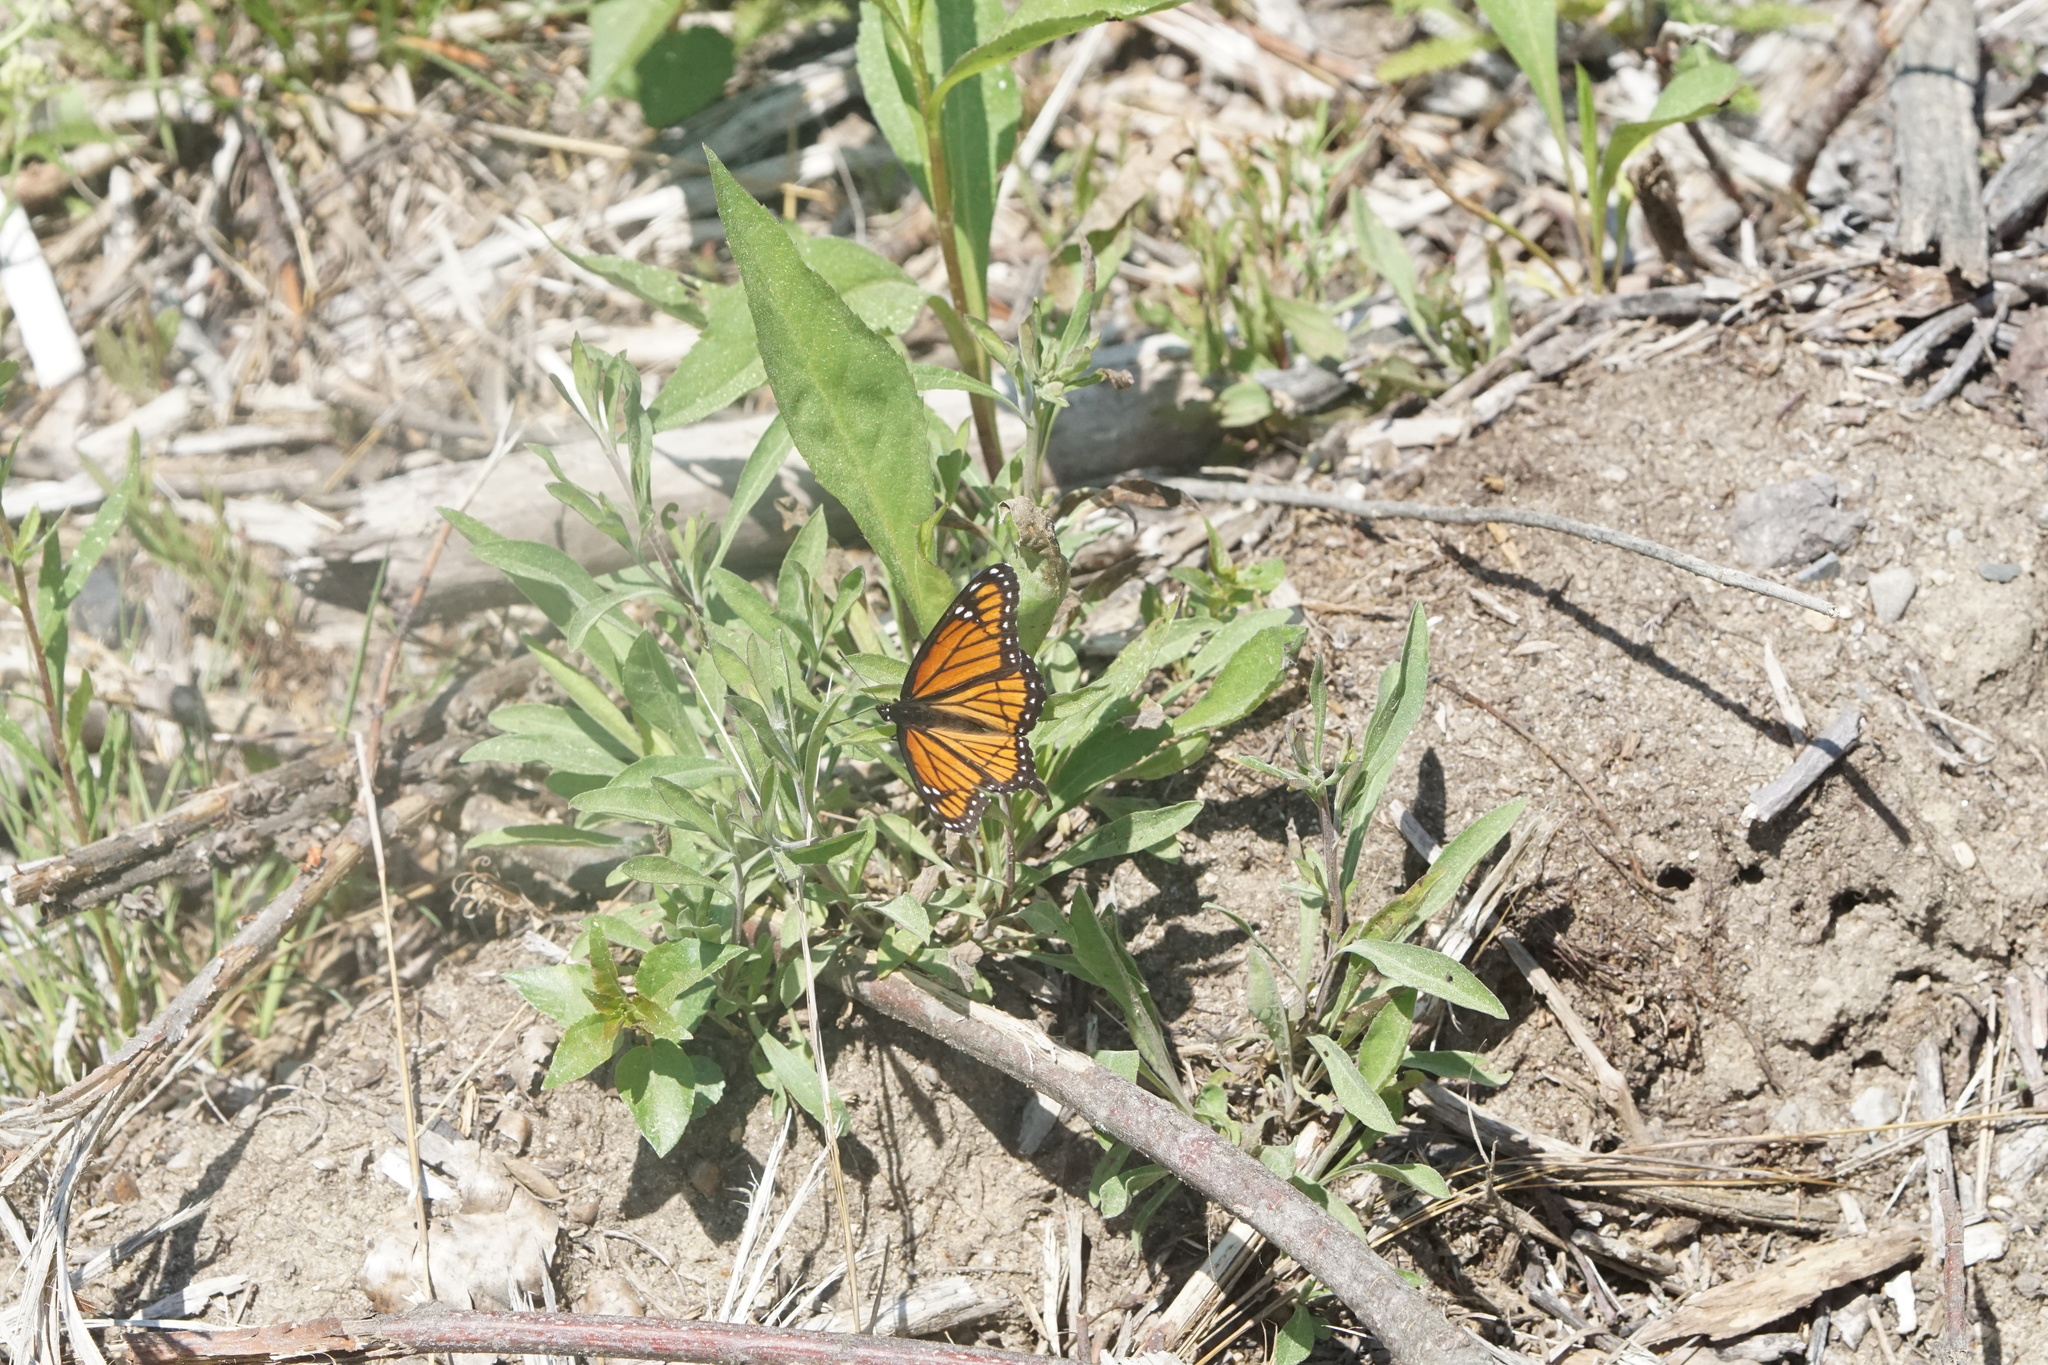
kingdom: Animalia
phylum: Arthropoda
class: Insecta
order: Lepidoptera
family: Nymphalidae
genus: Limenitis
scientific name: Limenitis archippus
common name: Viceroy
